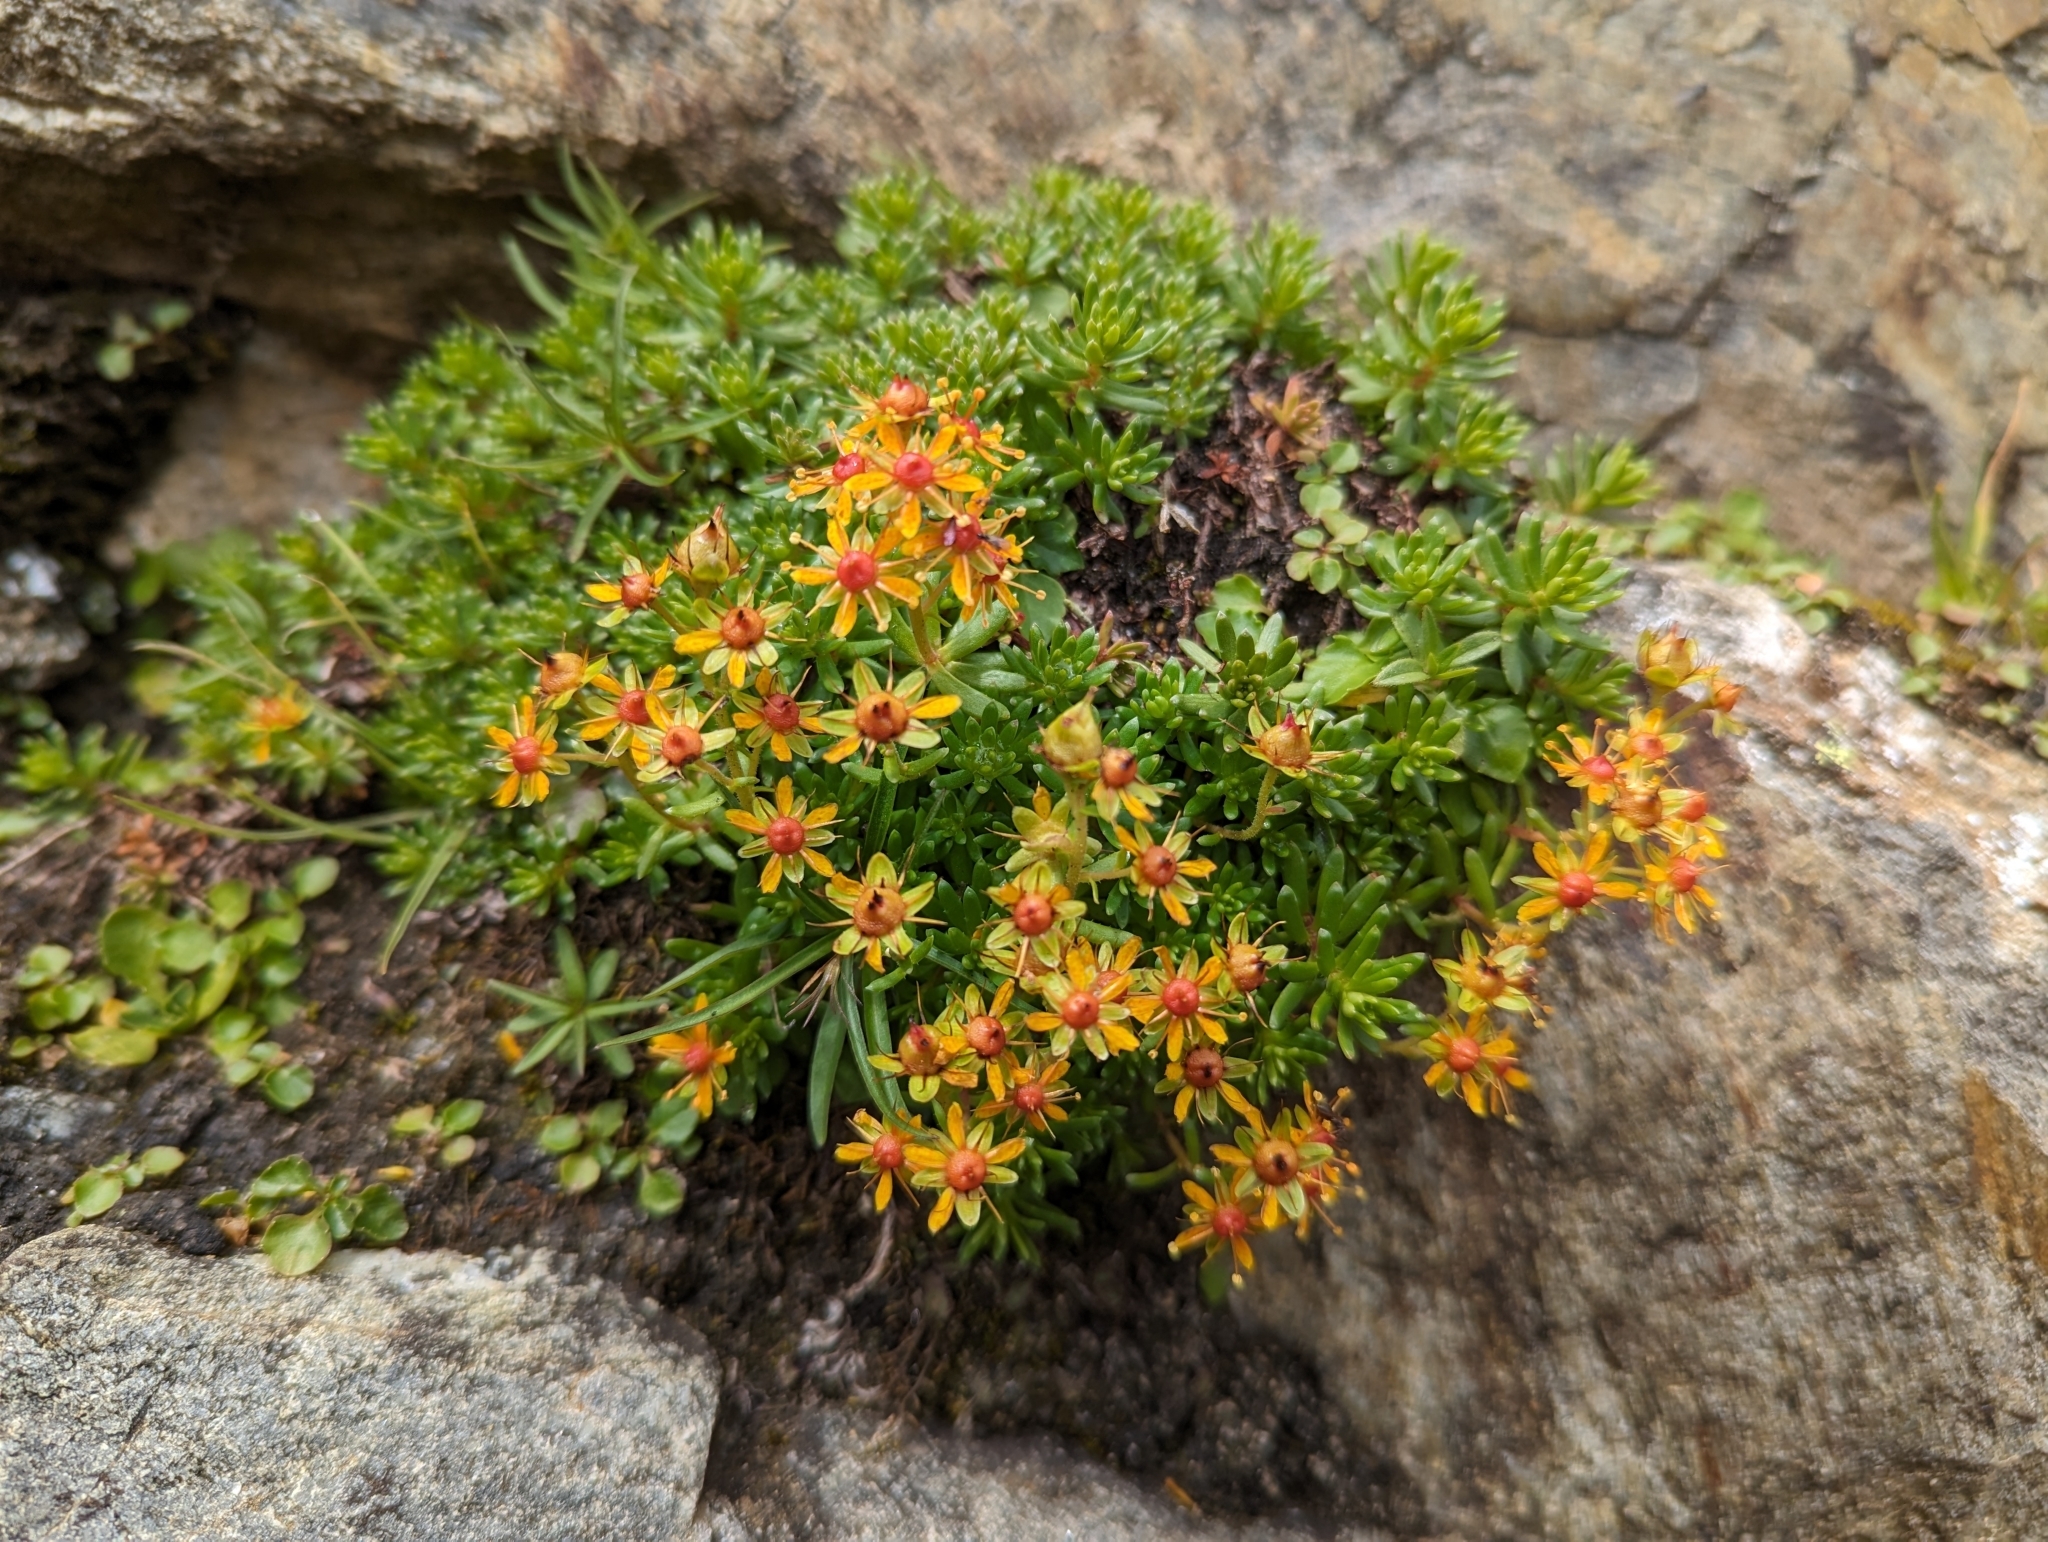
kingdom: Plantae
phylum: Tracheophyta
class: Magnoliopsida
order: Saxifragales
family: Saxifragaceae
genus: Saxifraga
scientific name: Saxifraga aizoides
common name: Yellow mountain saxifrage
